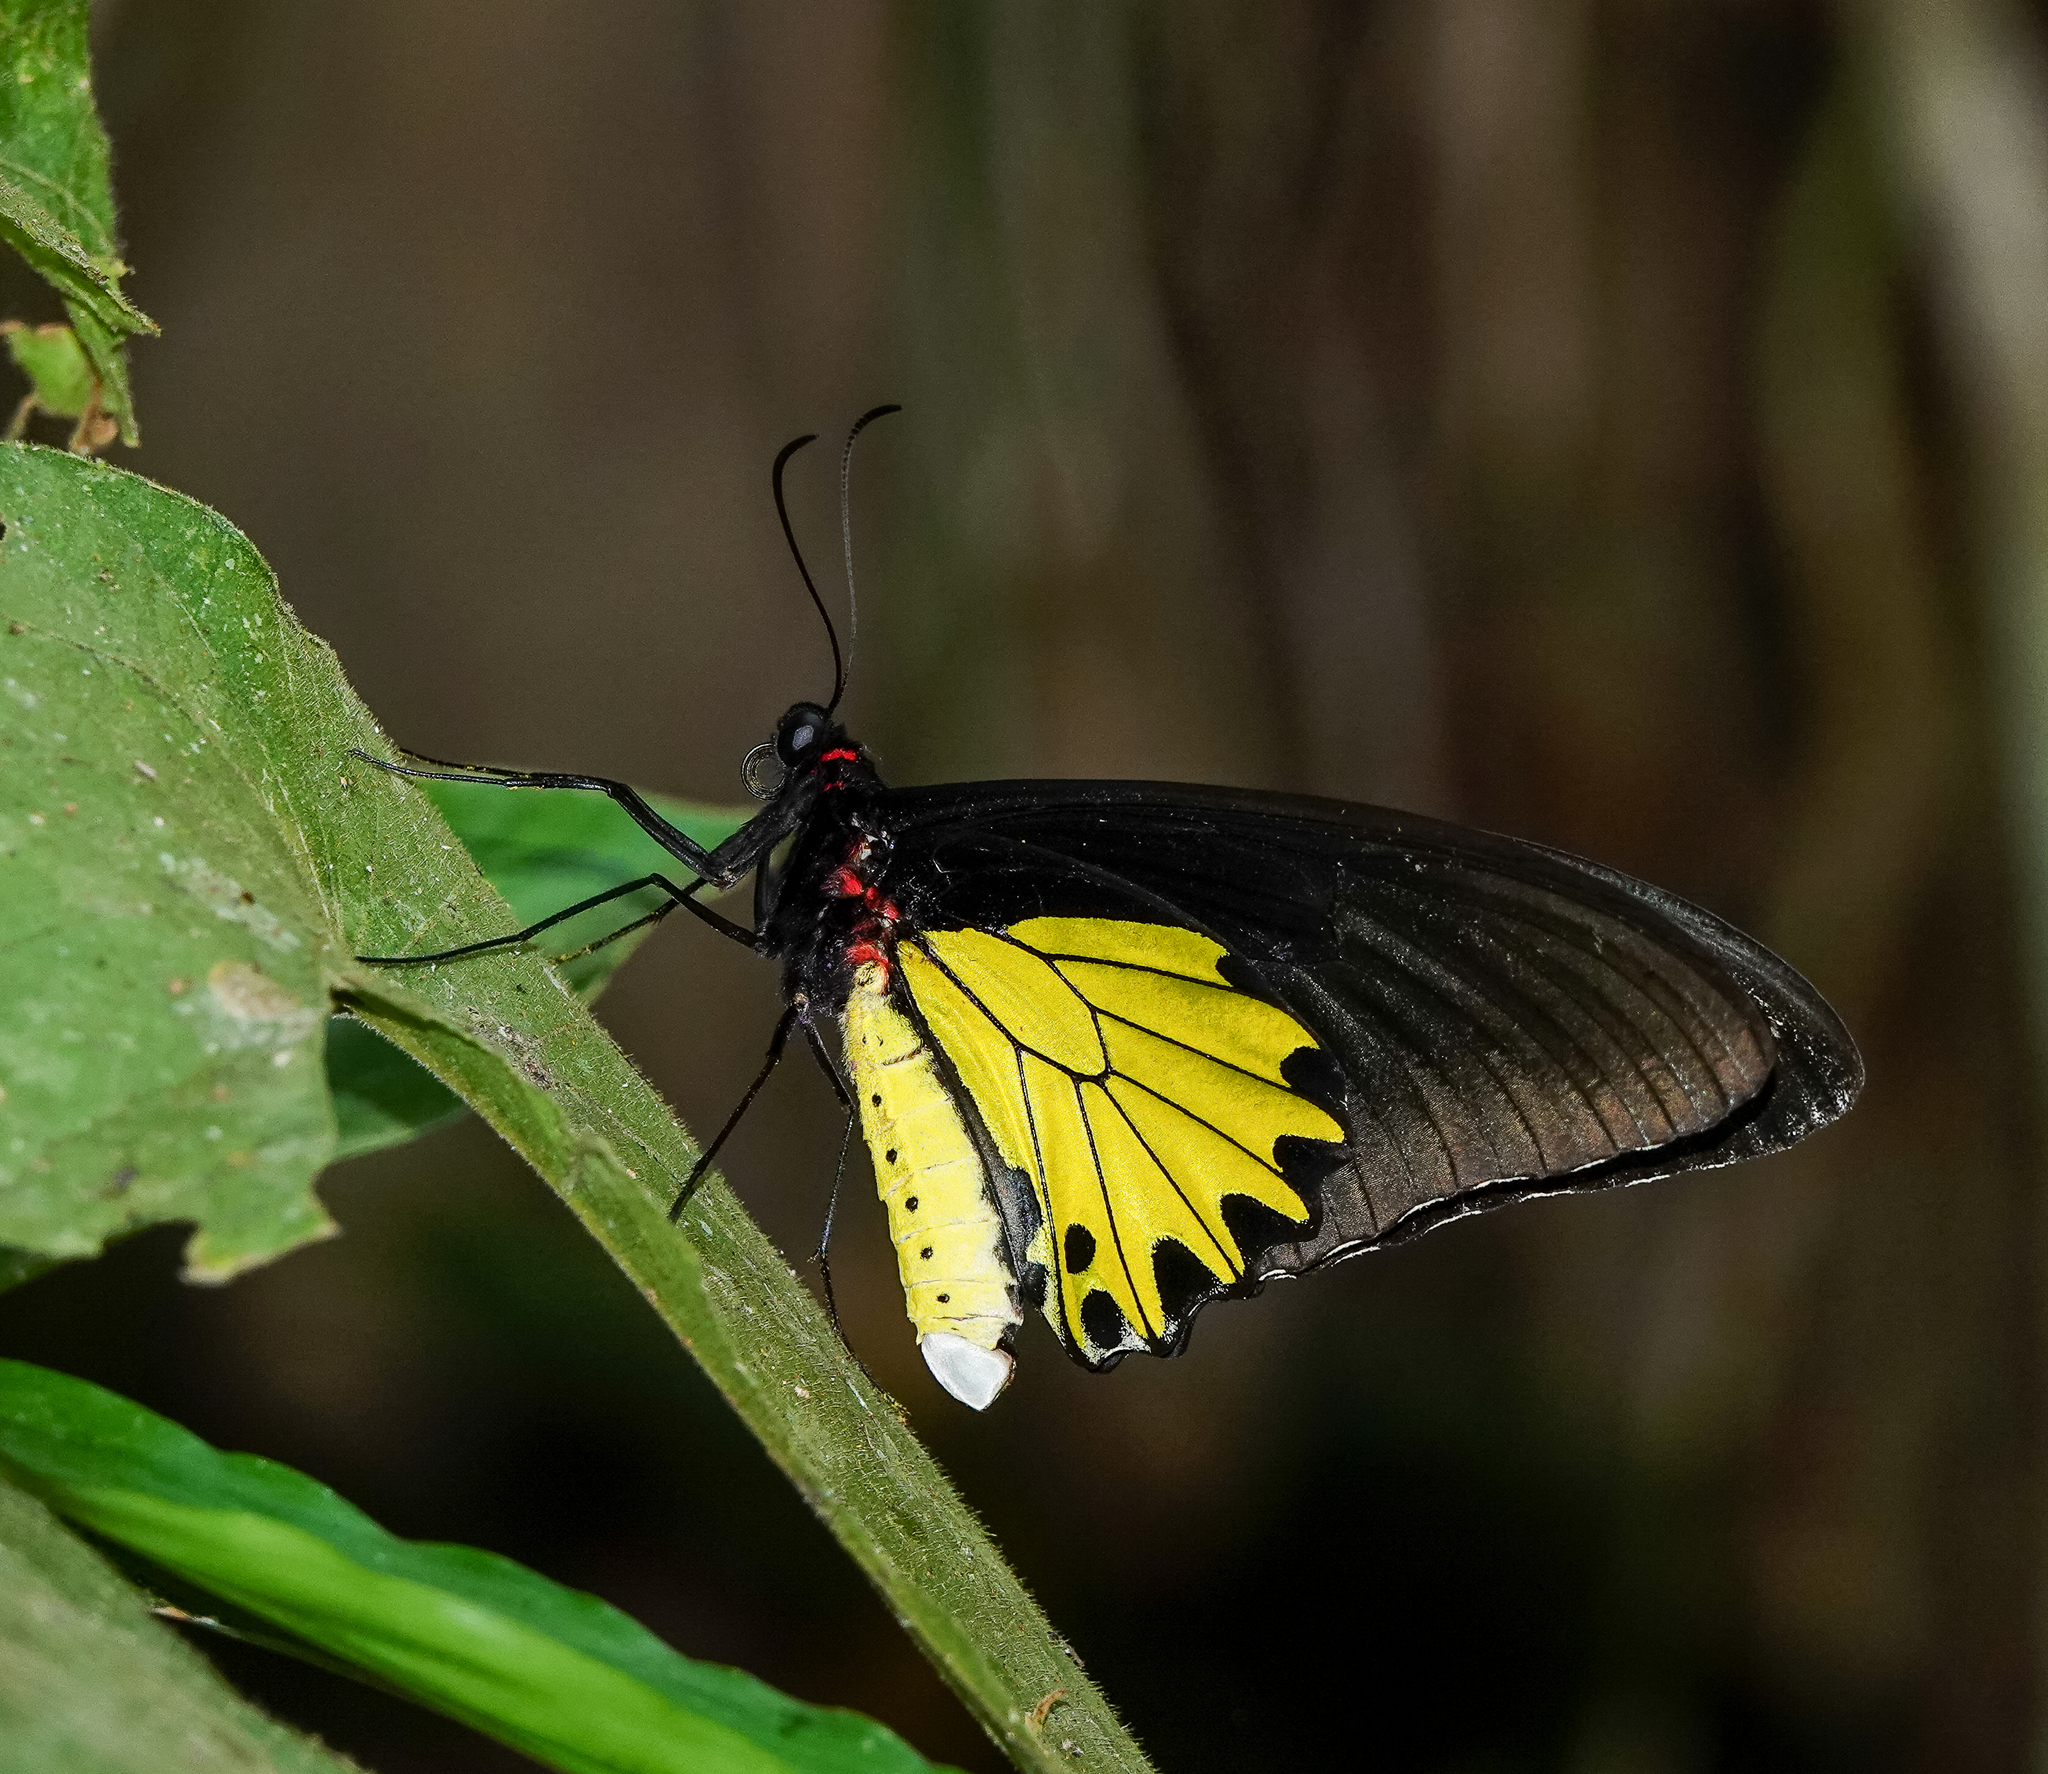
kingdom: Animalia
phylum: Arthropoda
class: Insecta
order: Lepidoptera
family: Papilionidae
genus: Troides
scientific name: Troides helena
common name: Common birdwing
